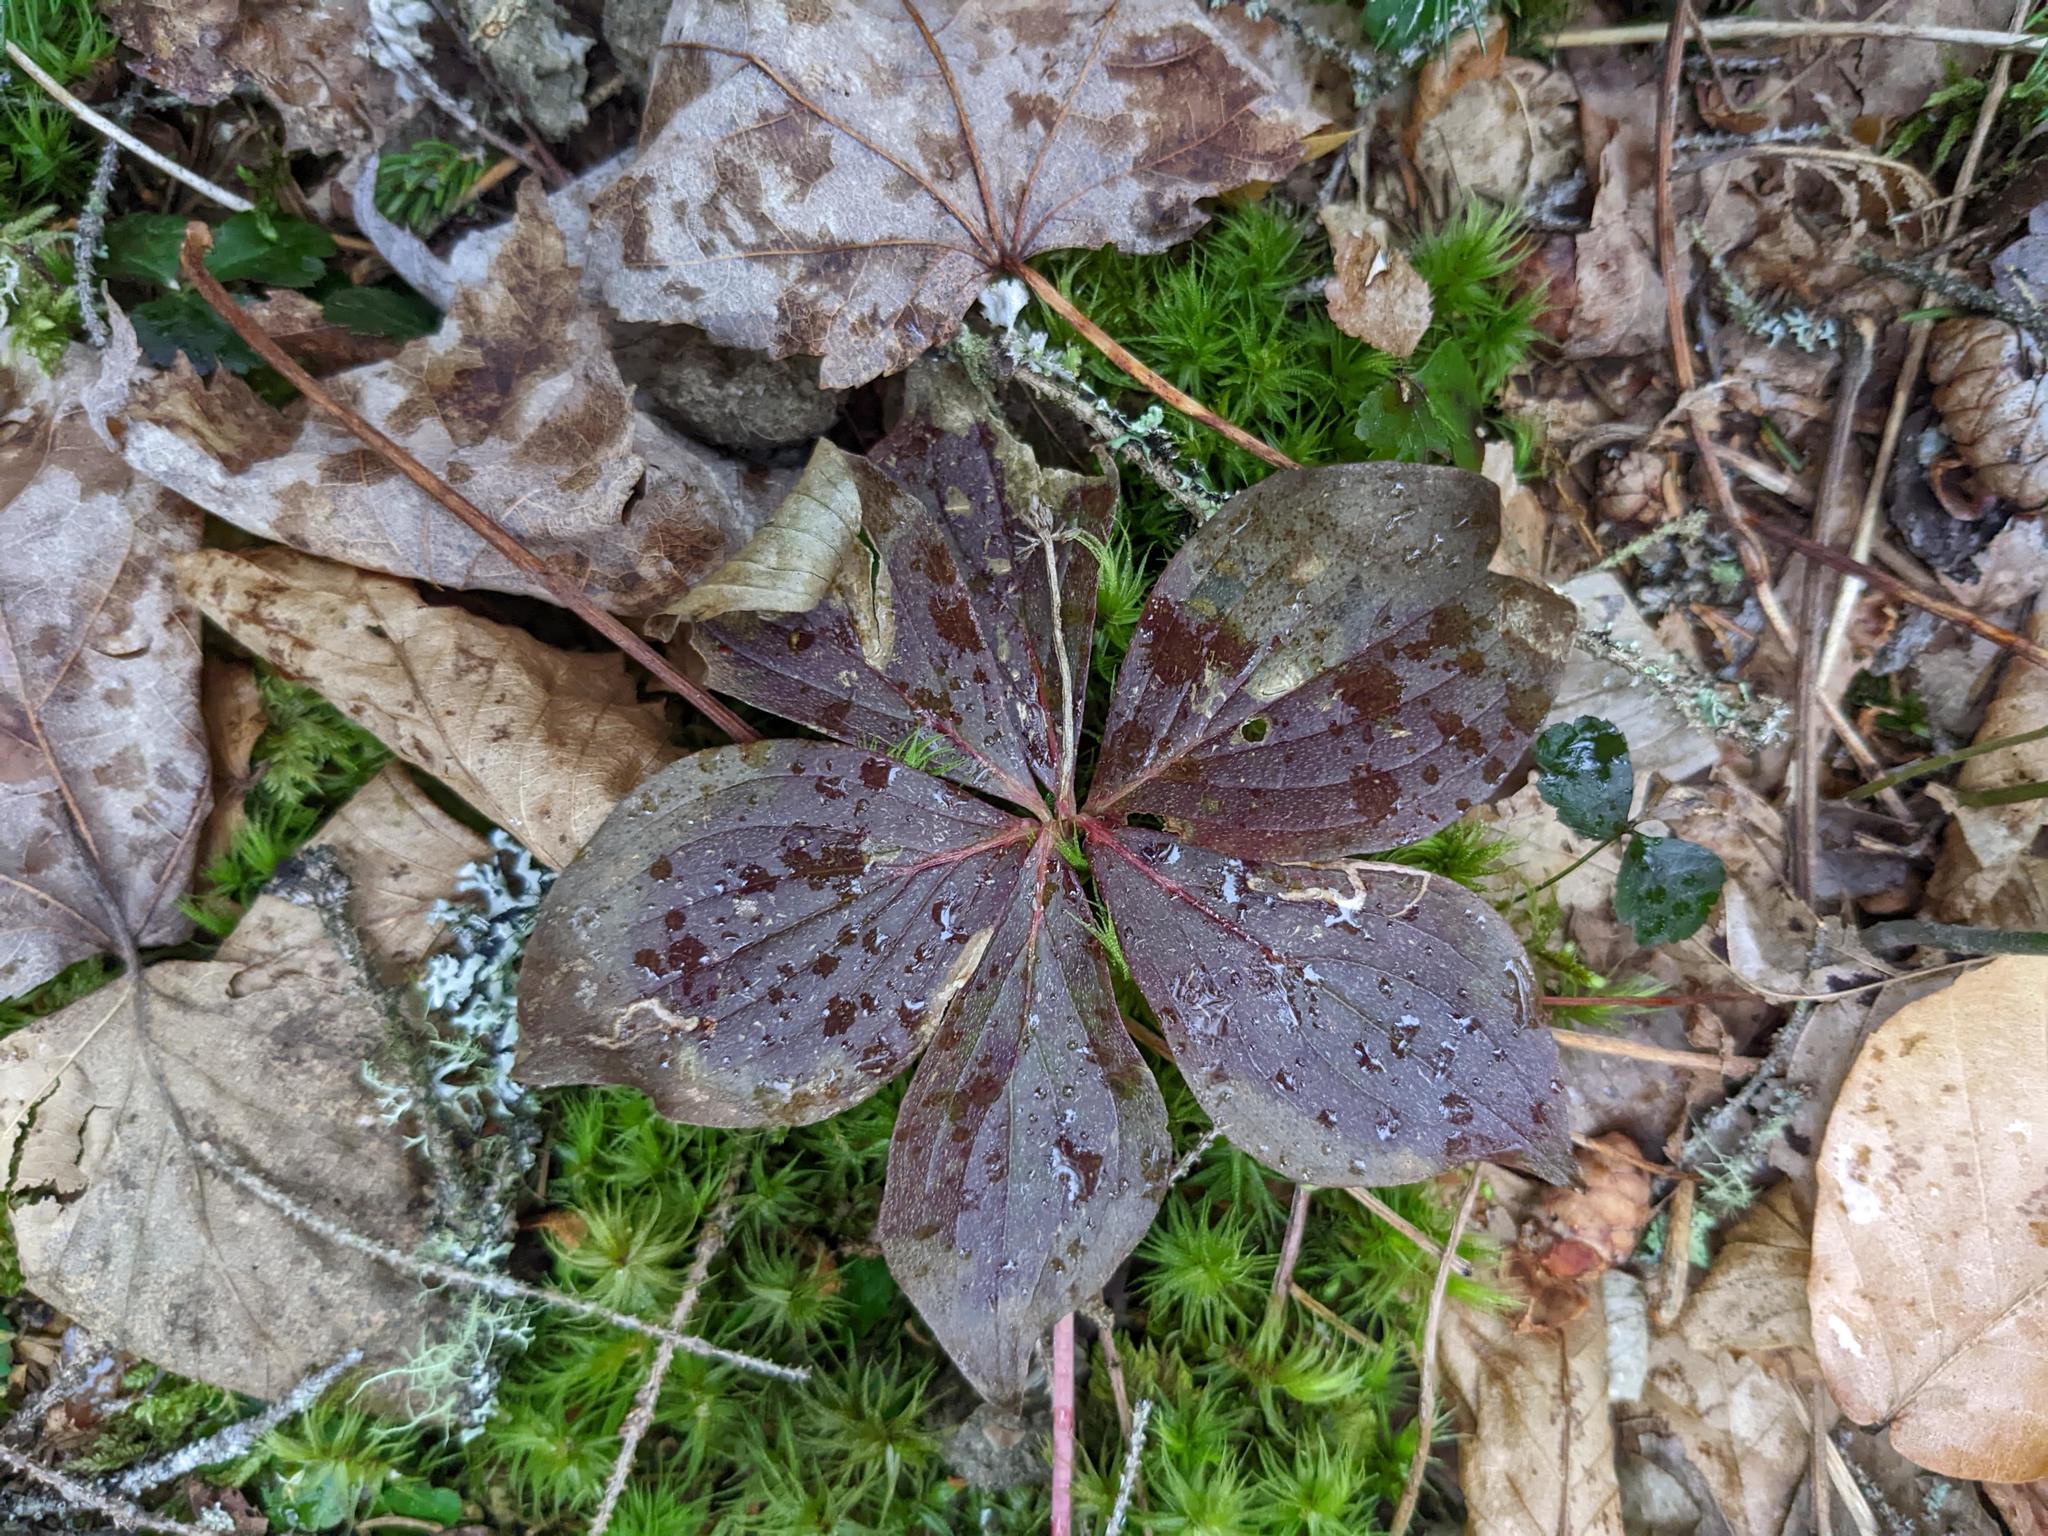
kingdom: Plantae
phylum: Tracheophyta
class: Magnoliopsida
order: Cornales
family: Cornaceae
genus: Cornus
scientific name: Cornus canadensis
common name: Creeping dogwood
